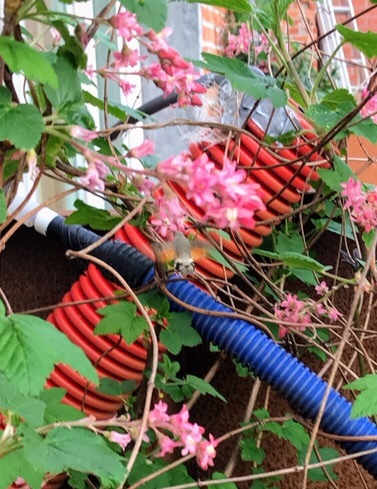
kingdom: Animalia
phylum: Arthropoda
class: Insecta
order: Lepidoptera
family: Sphingidae
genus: Macroglossum
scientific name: Macroglossum stellatarum
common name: Humming-bird hawk-moth
